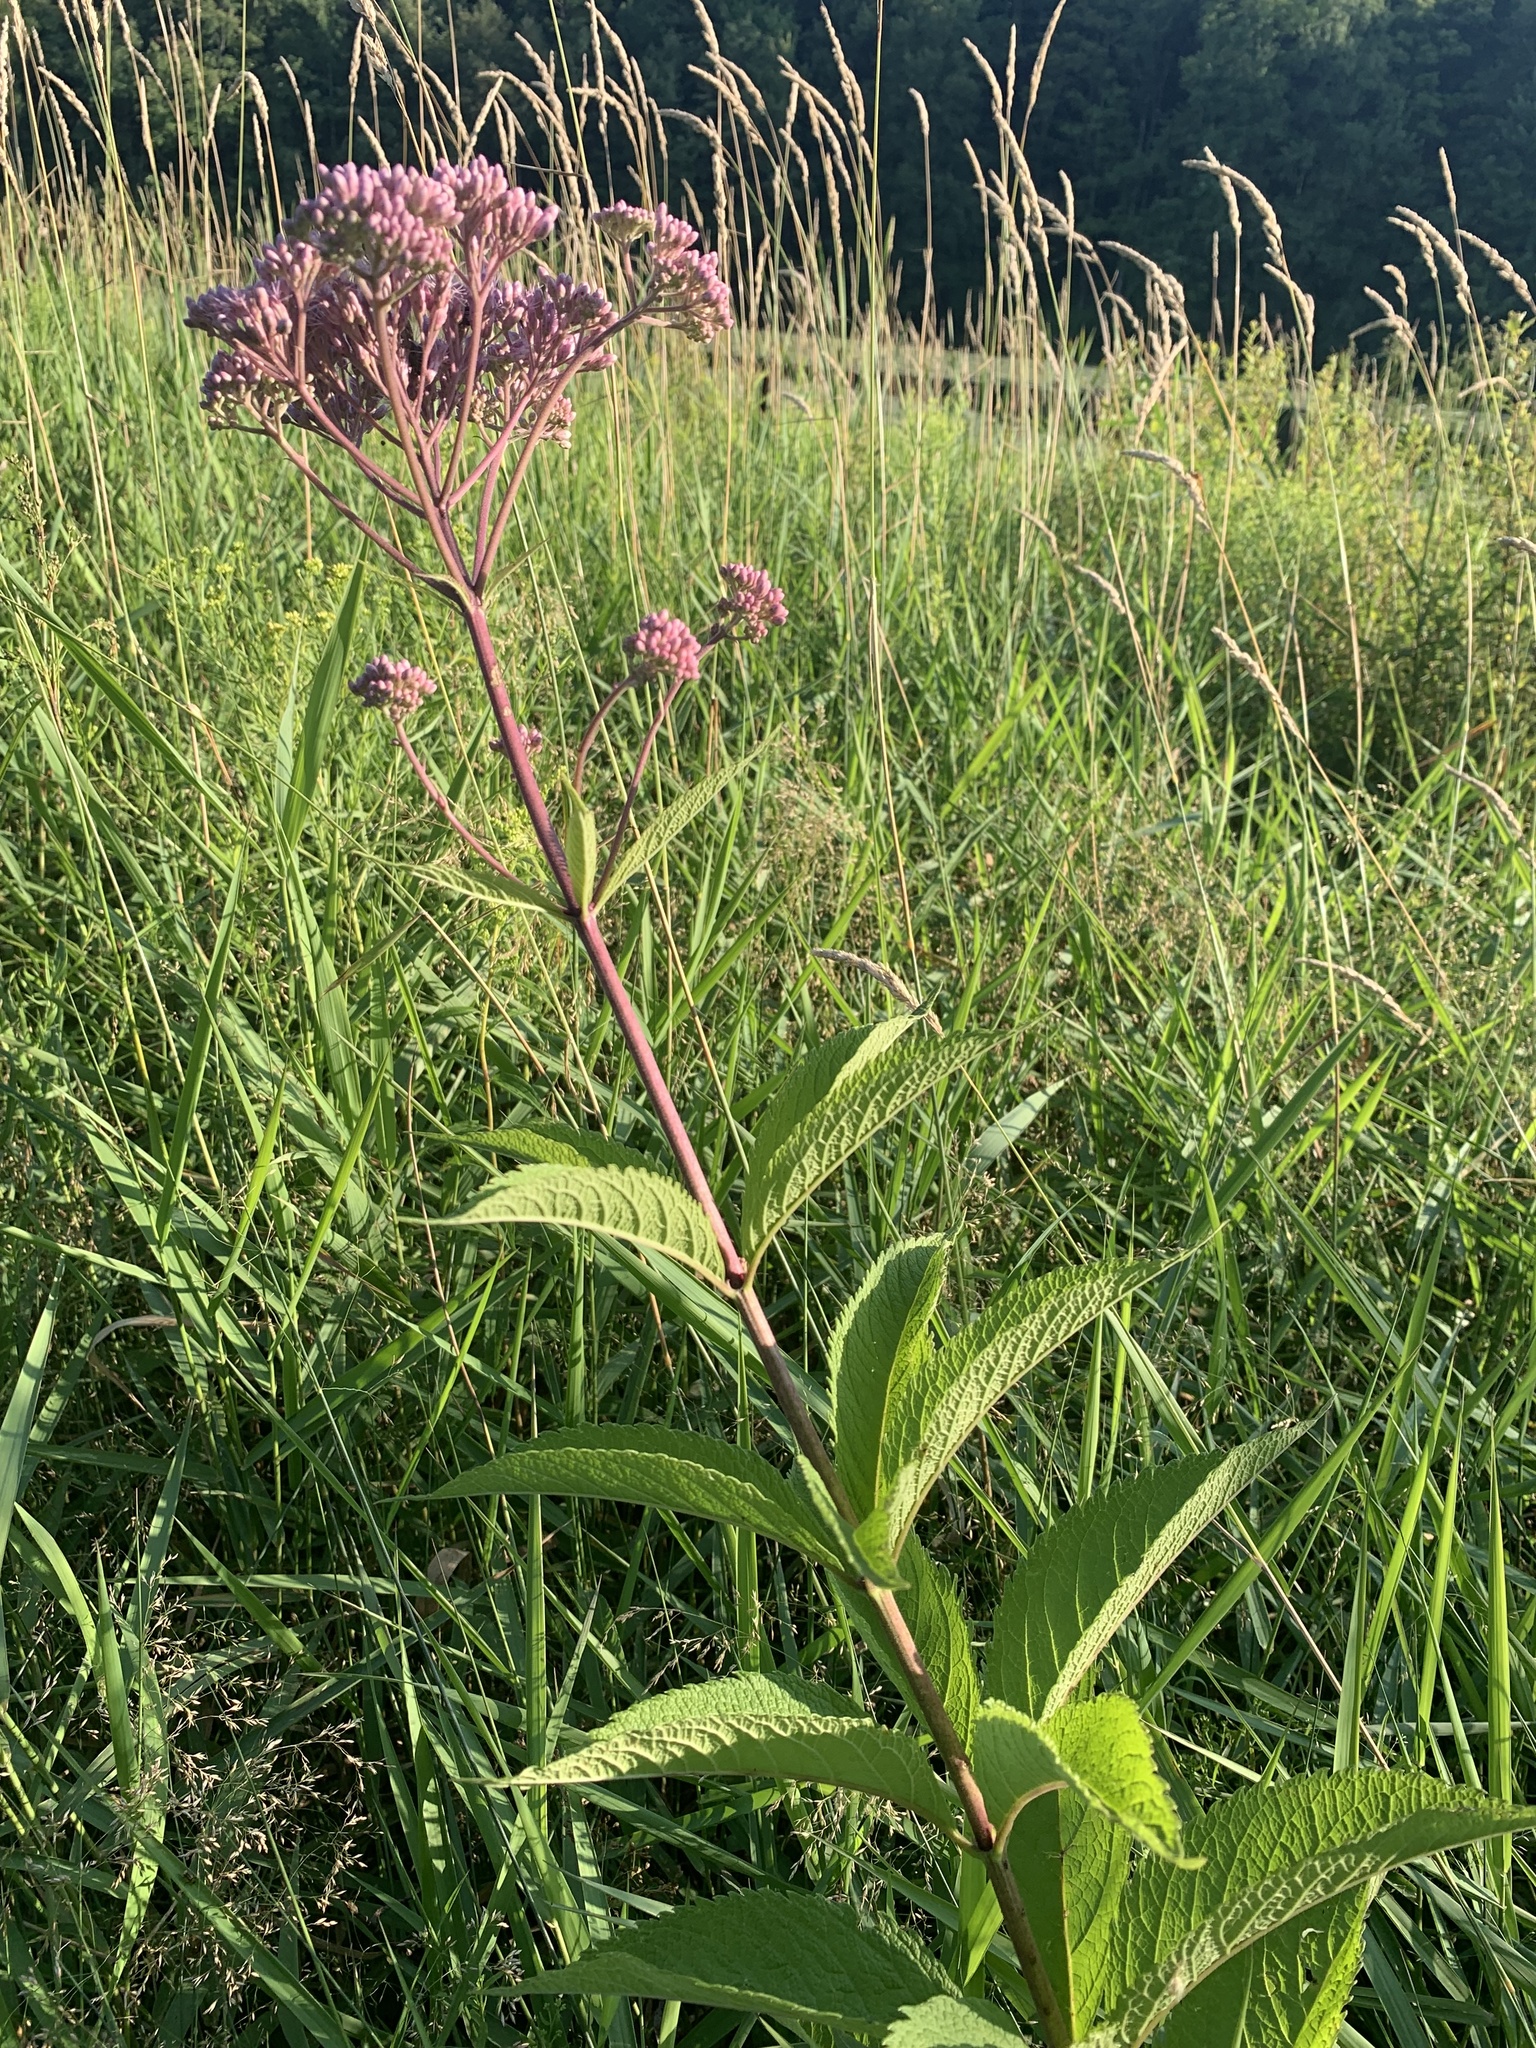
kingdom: Plantae
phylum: Tracheophyta
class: Magnoliopsida
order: Asterales
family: Asteraceae
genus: Eutrochium
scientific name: Eutrochium maculatum
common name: Spotted joe pye weed
